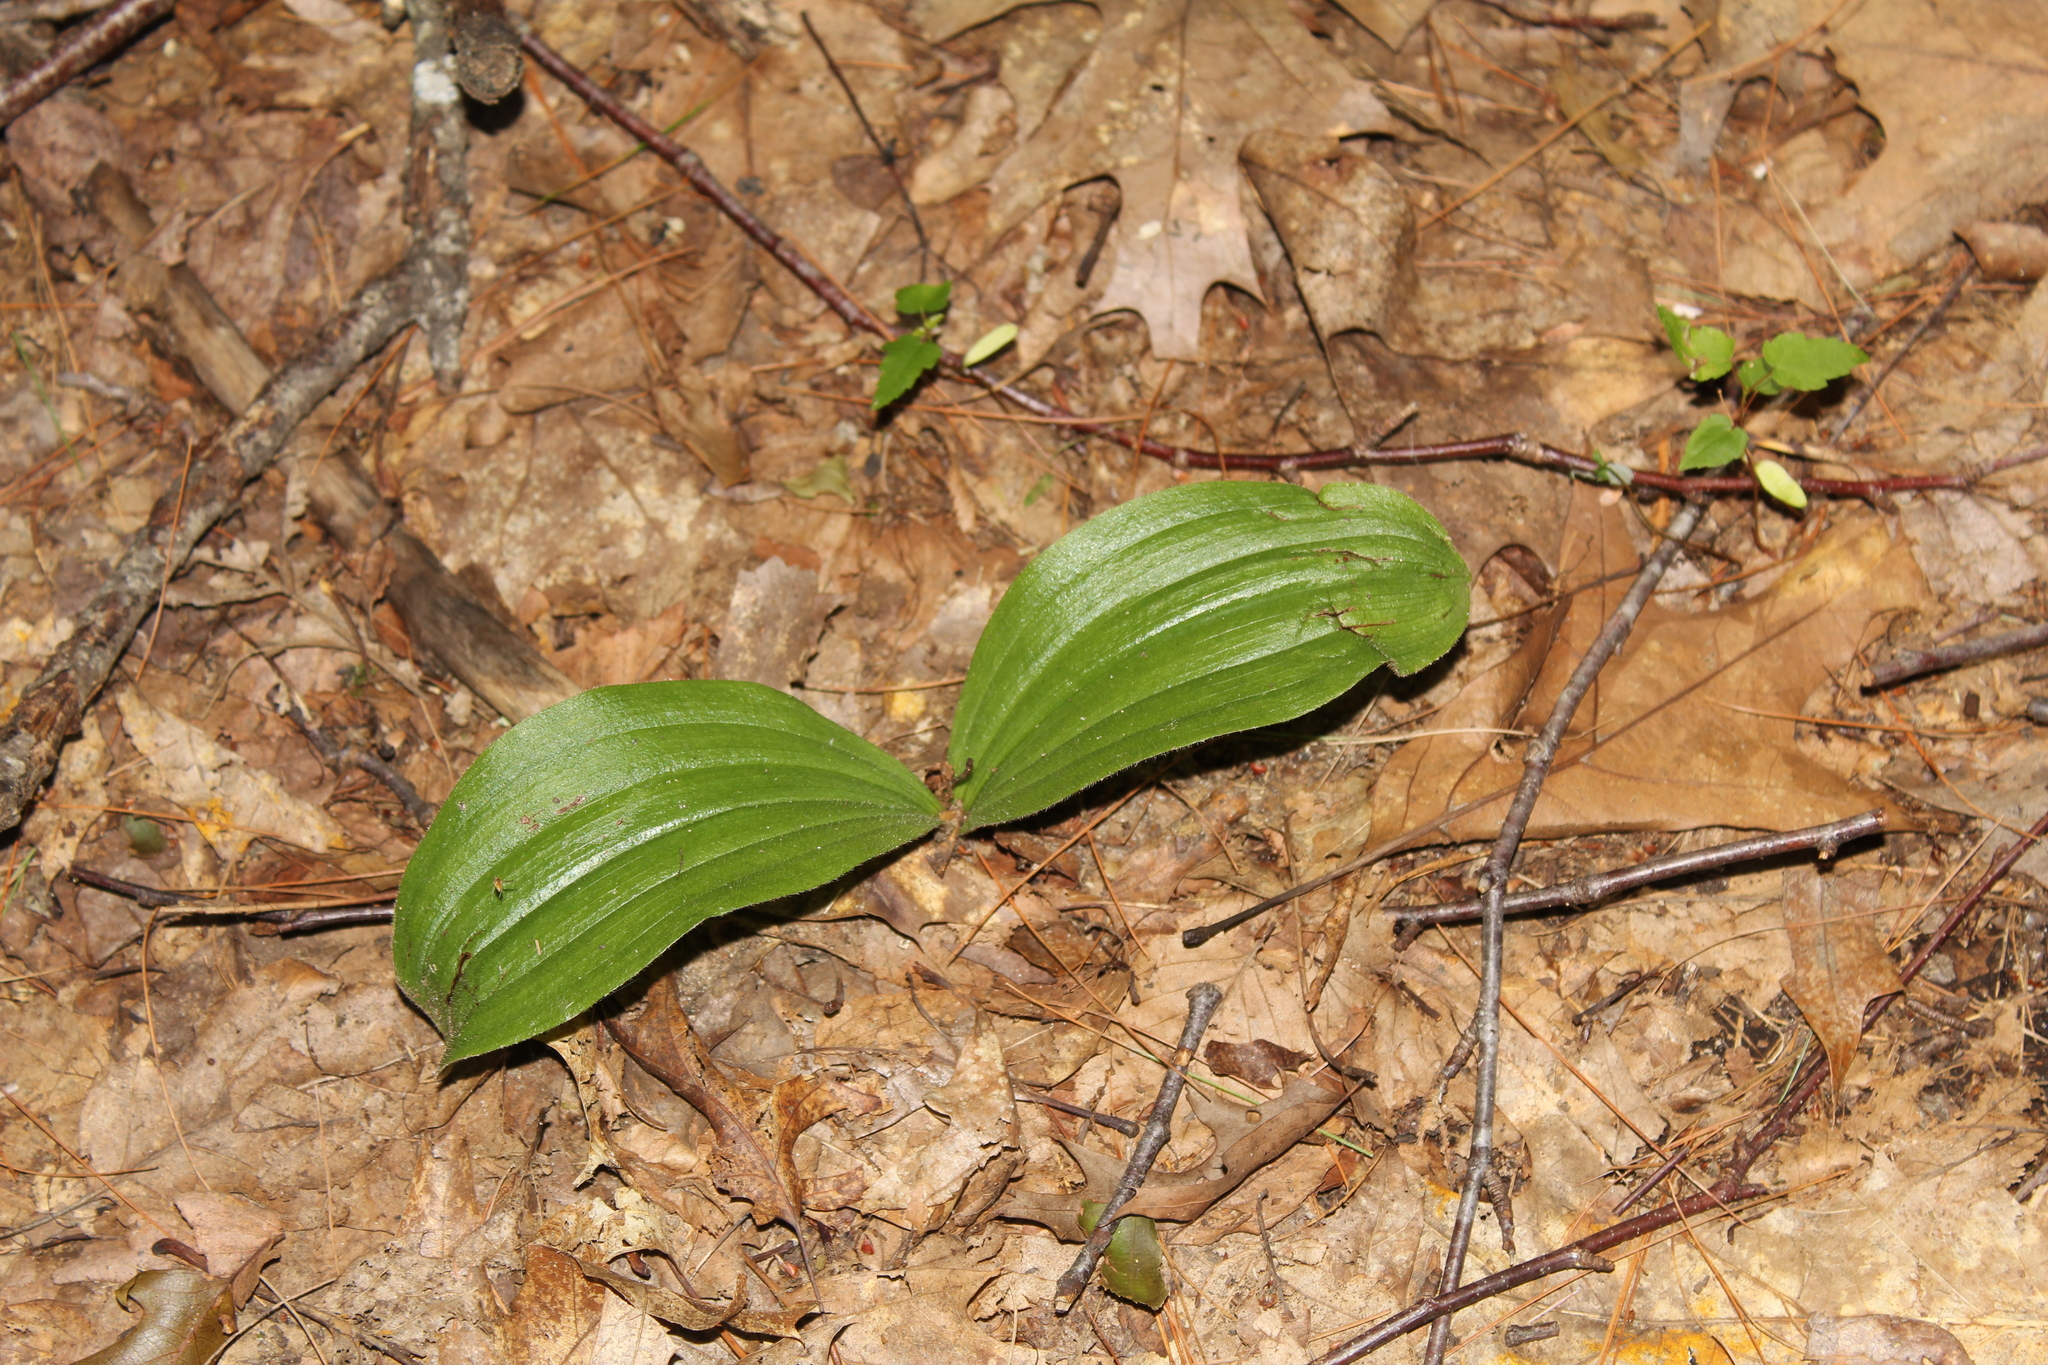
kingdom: Plantae
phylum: Tracheophyta
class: Liliopsida
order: Asparagales
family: Orchidaceae
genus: Cypripedium
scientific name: Cypripedium acaule
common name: Pink lady's-slipper
